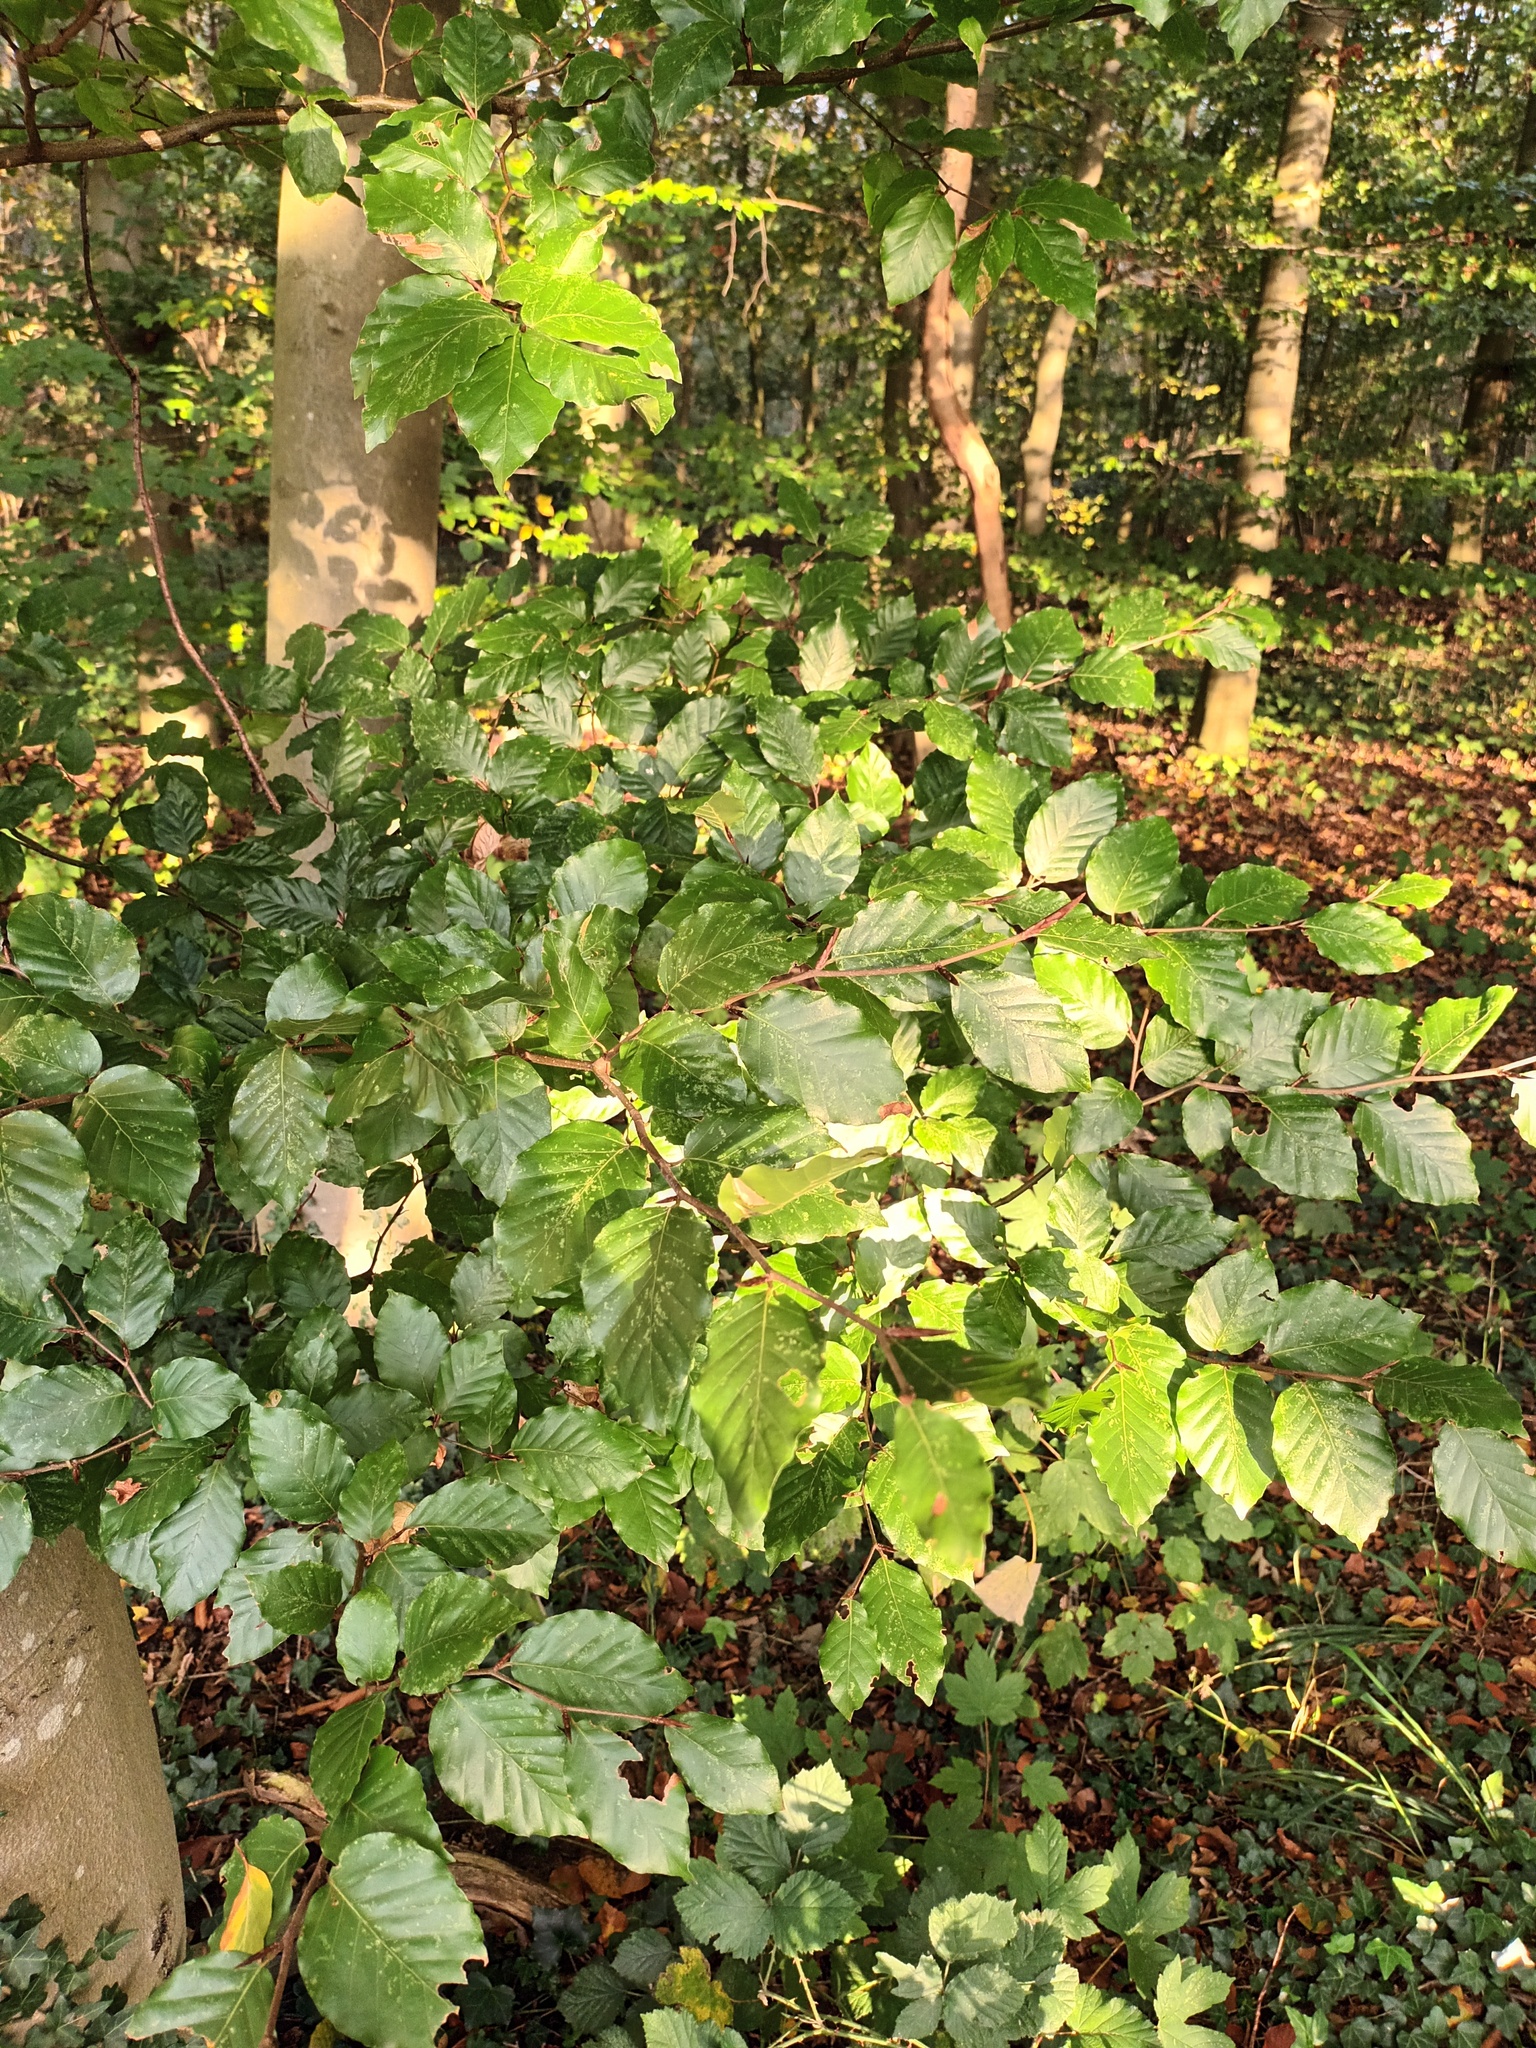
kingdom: Plantae
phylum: Tracheophyta
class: Magnoliopsida
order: Fagales
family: Fagaceae
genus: Fagus
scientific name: Fagus sylvatica
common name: Beech
